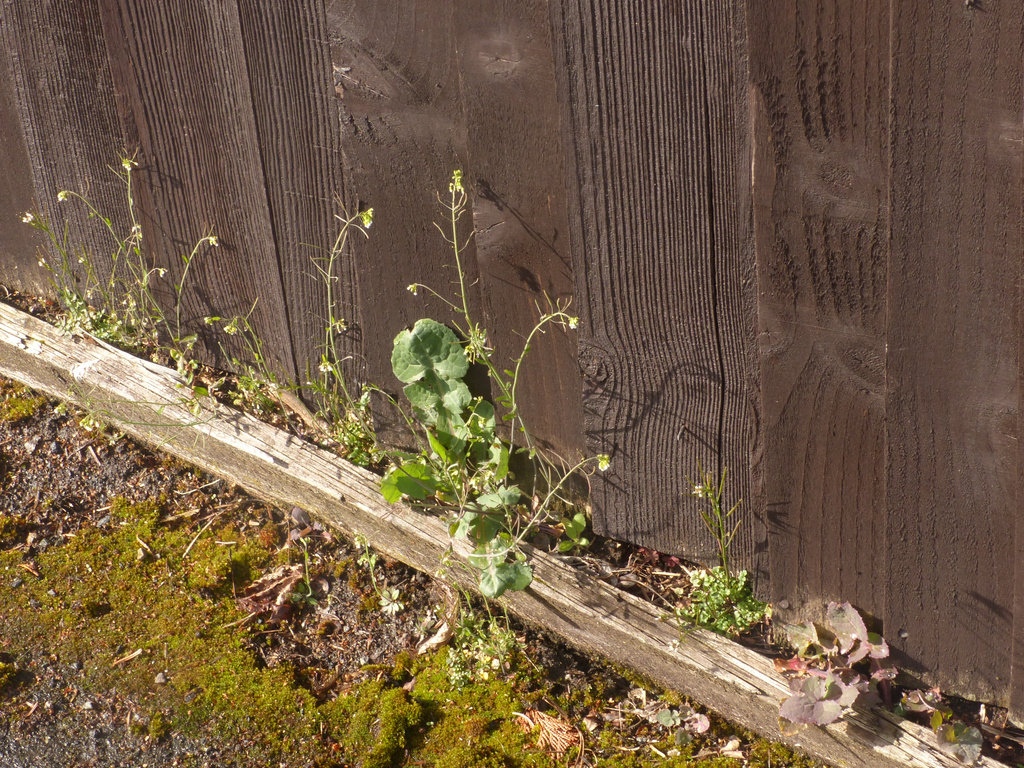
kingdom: Plantae
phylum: Tracheophyta
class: Magnoliopsida
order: Brassicales
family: Brassicaceae
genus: Arabidopsis
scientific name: Arabidopsis thaliana
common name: Thale cress
